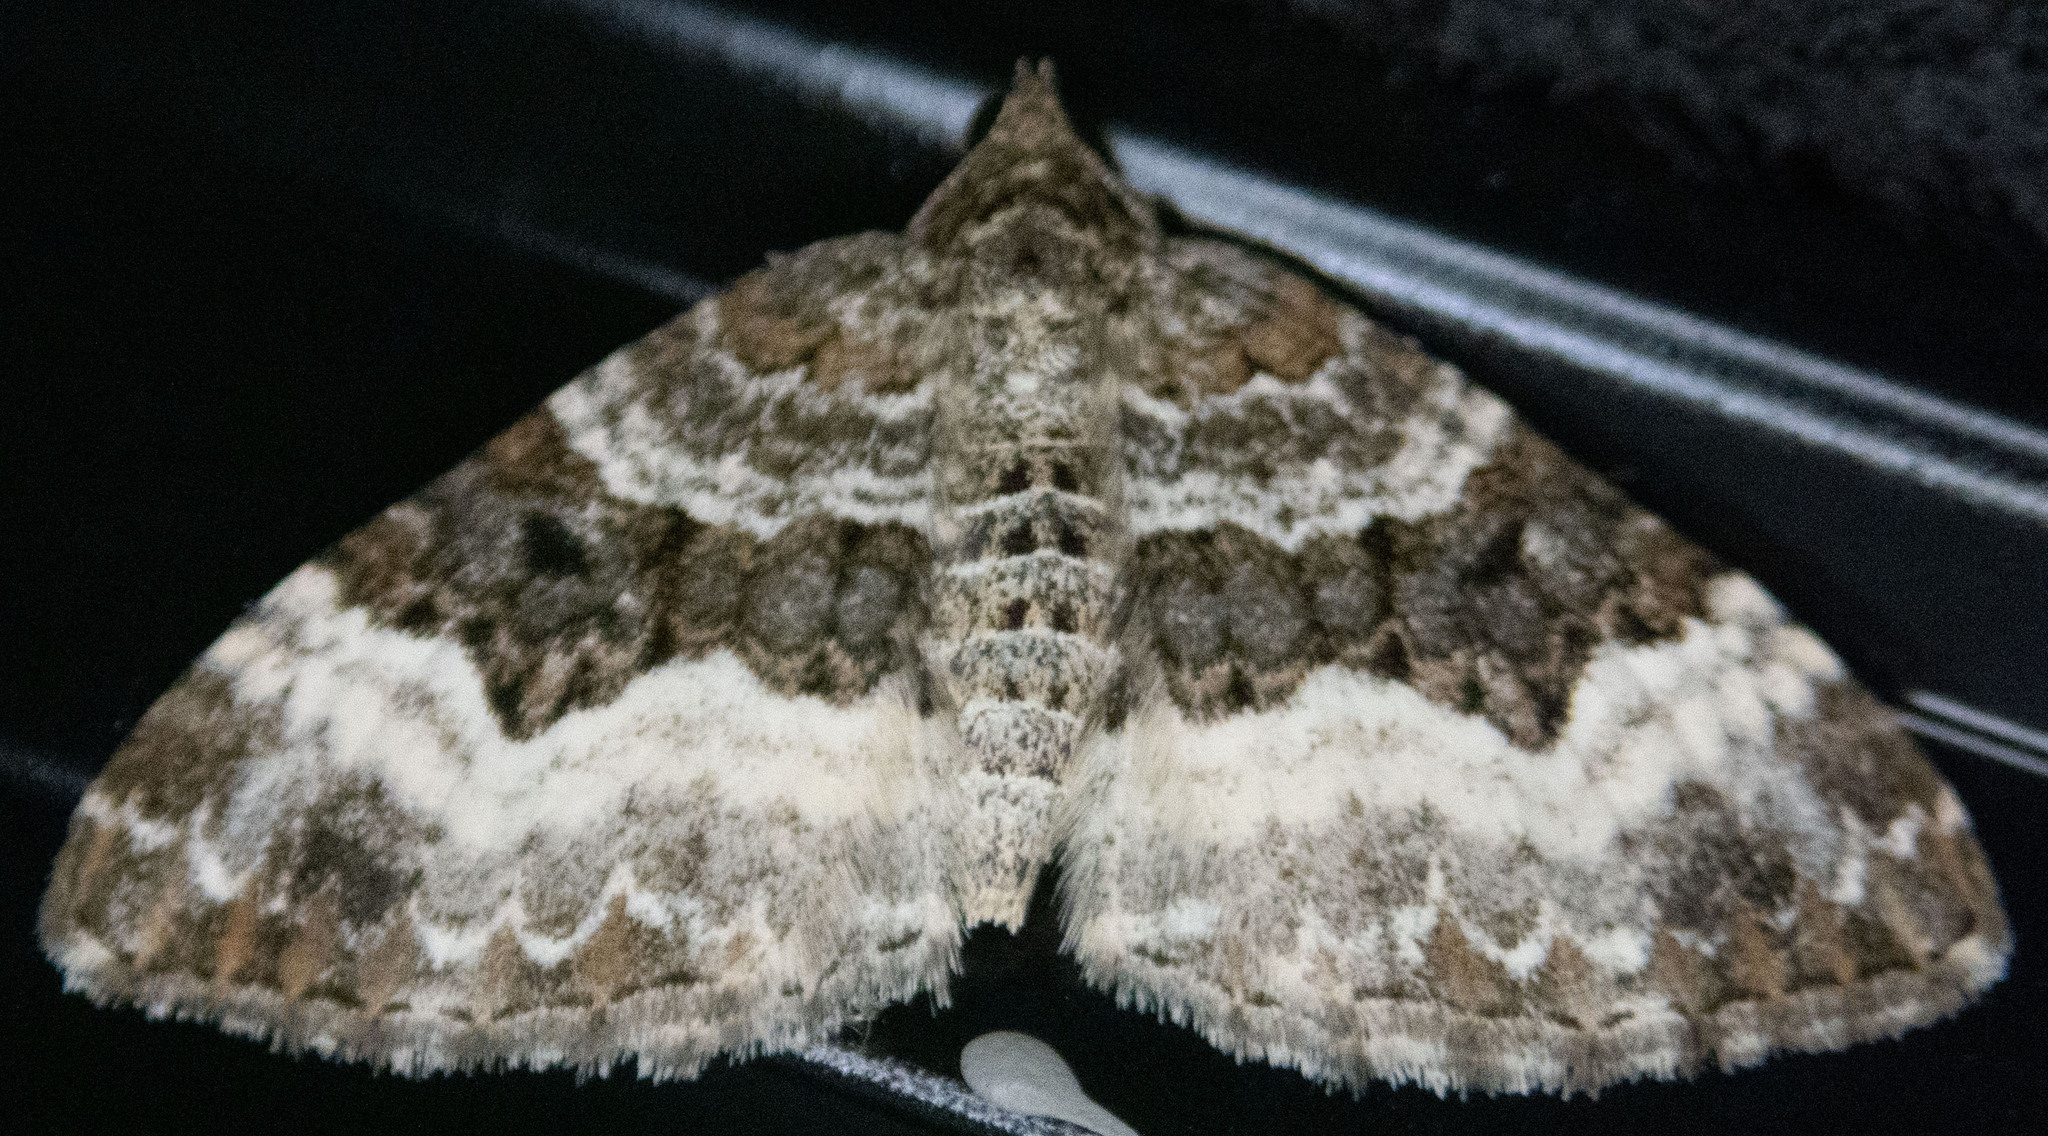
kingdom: Animalia
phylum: Arthropoda
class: Insecta
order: Lepidoptera
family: Geometridae
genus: Epirrhoe
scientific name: Epirrhoe alternata
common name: Common carpet
